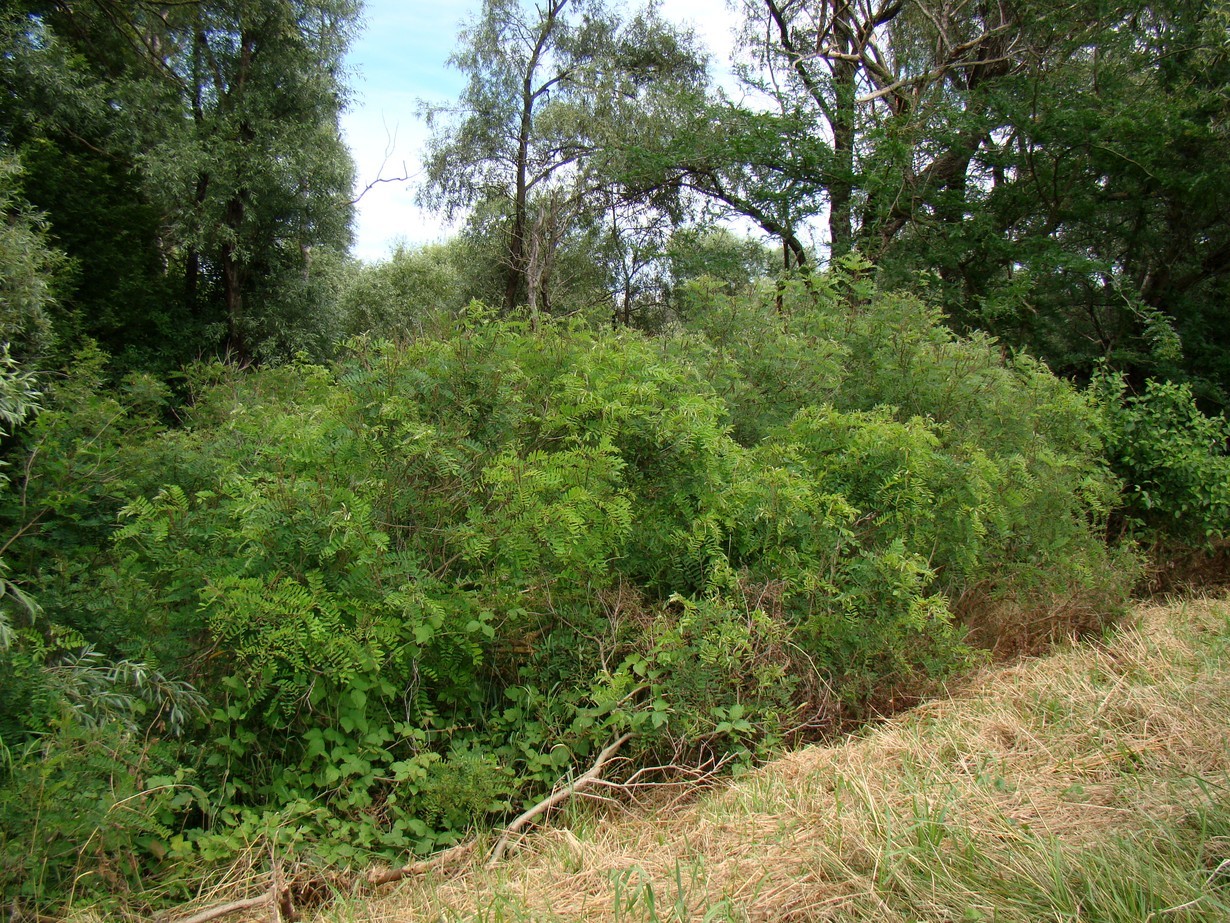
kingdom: Plantae
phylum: Tracheophyta
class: Magnoliopsida
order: Fabales
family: Fabaceae
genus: Amorpha
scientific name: Amorpha fruticosa
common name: False indigo
